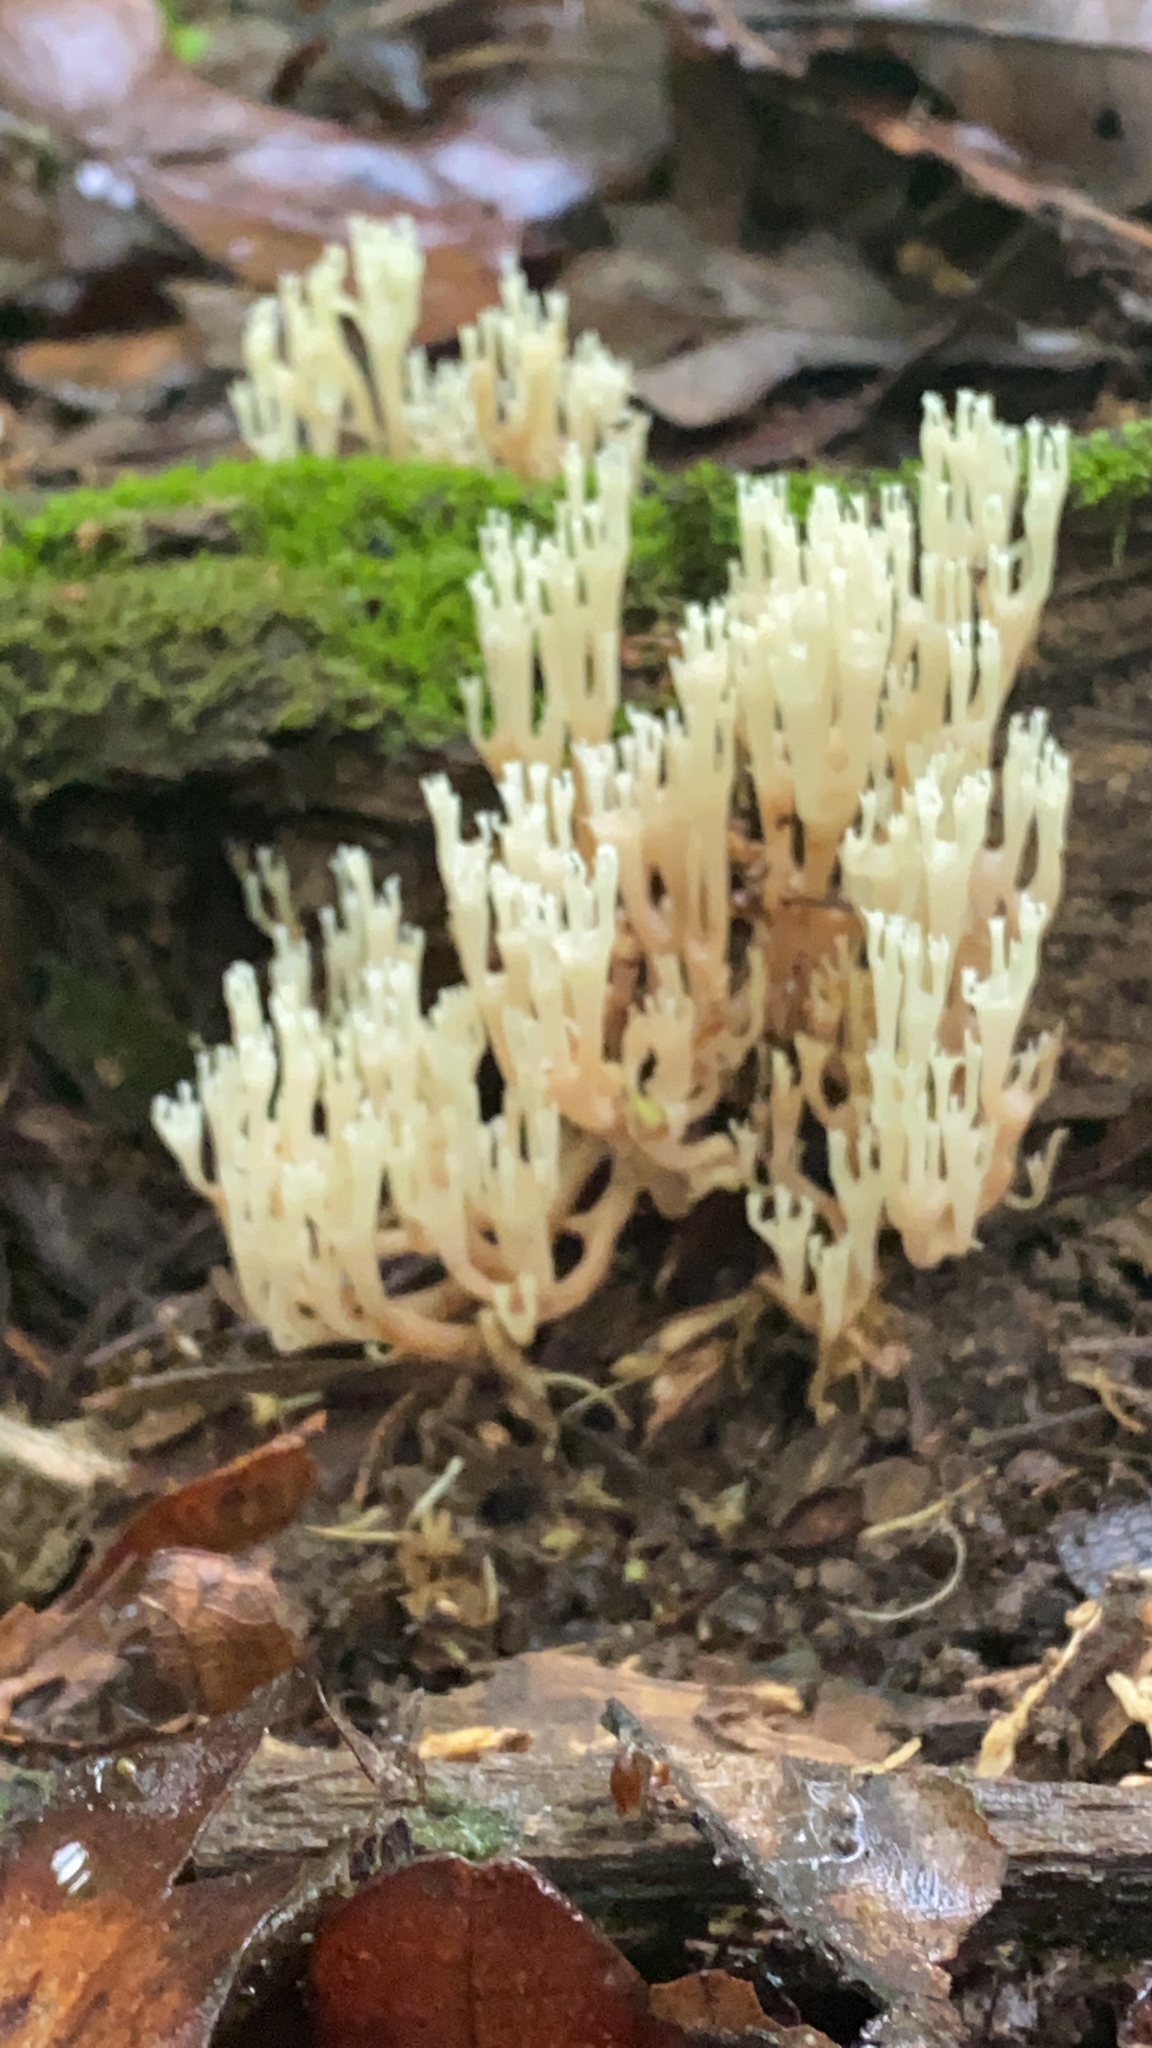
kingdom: Fungi
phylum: Basidiomycota
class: Agaricomycetes
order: Russulales
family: Auriscalpiaceae
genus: Artomyces
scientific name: Artomyces pyxidatus
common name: Crown-tipped coral fungus
